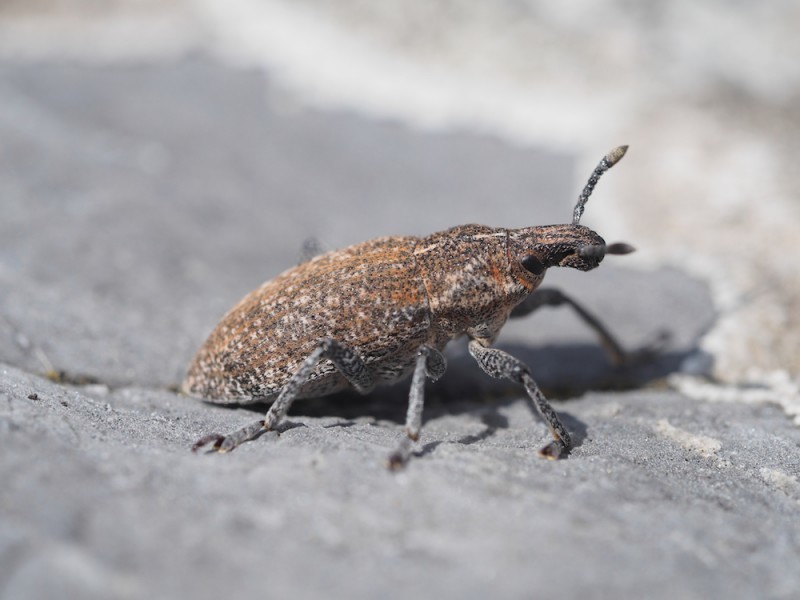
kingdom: Animalia
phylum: Arthropoda
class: Insecta
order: Coleoptera
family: Curculionidae
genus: Rhabdorrhynchus
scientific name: Rhabdorrhynchus echii
